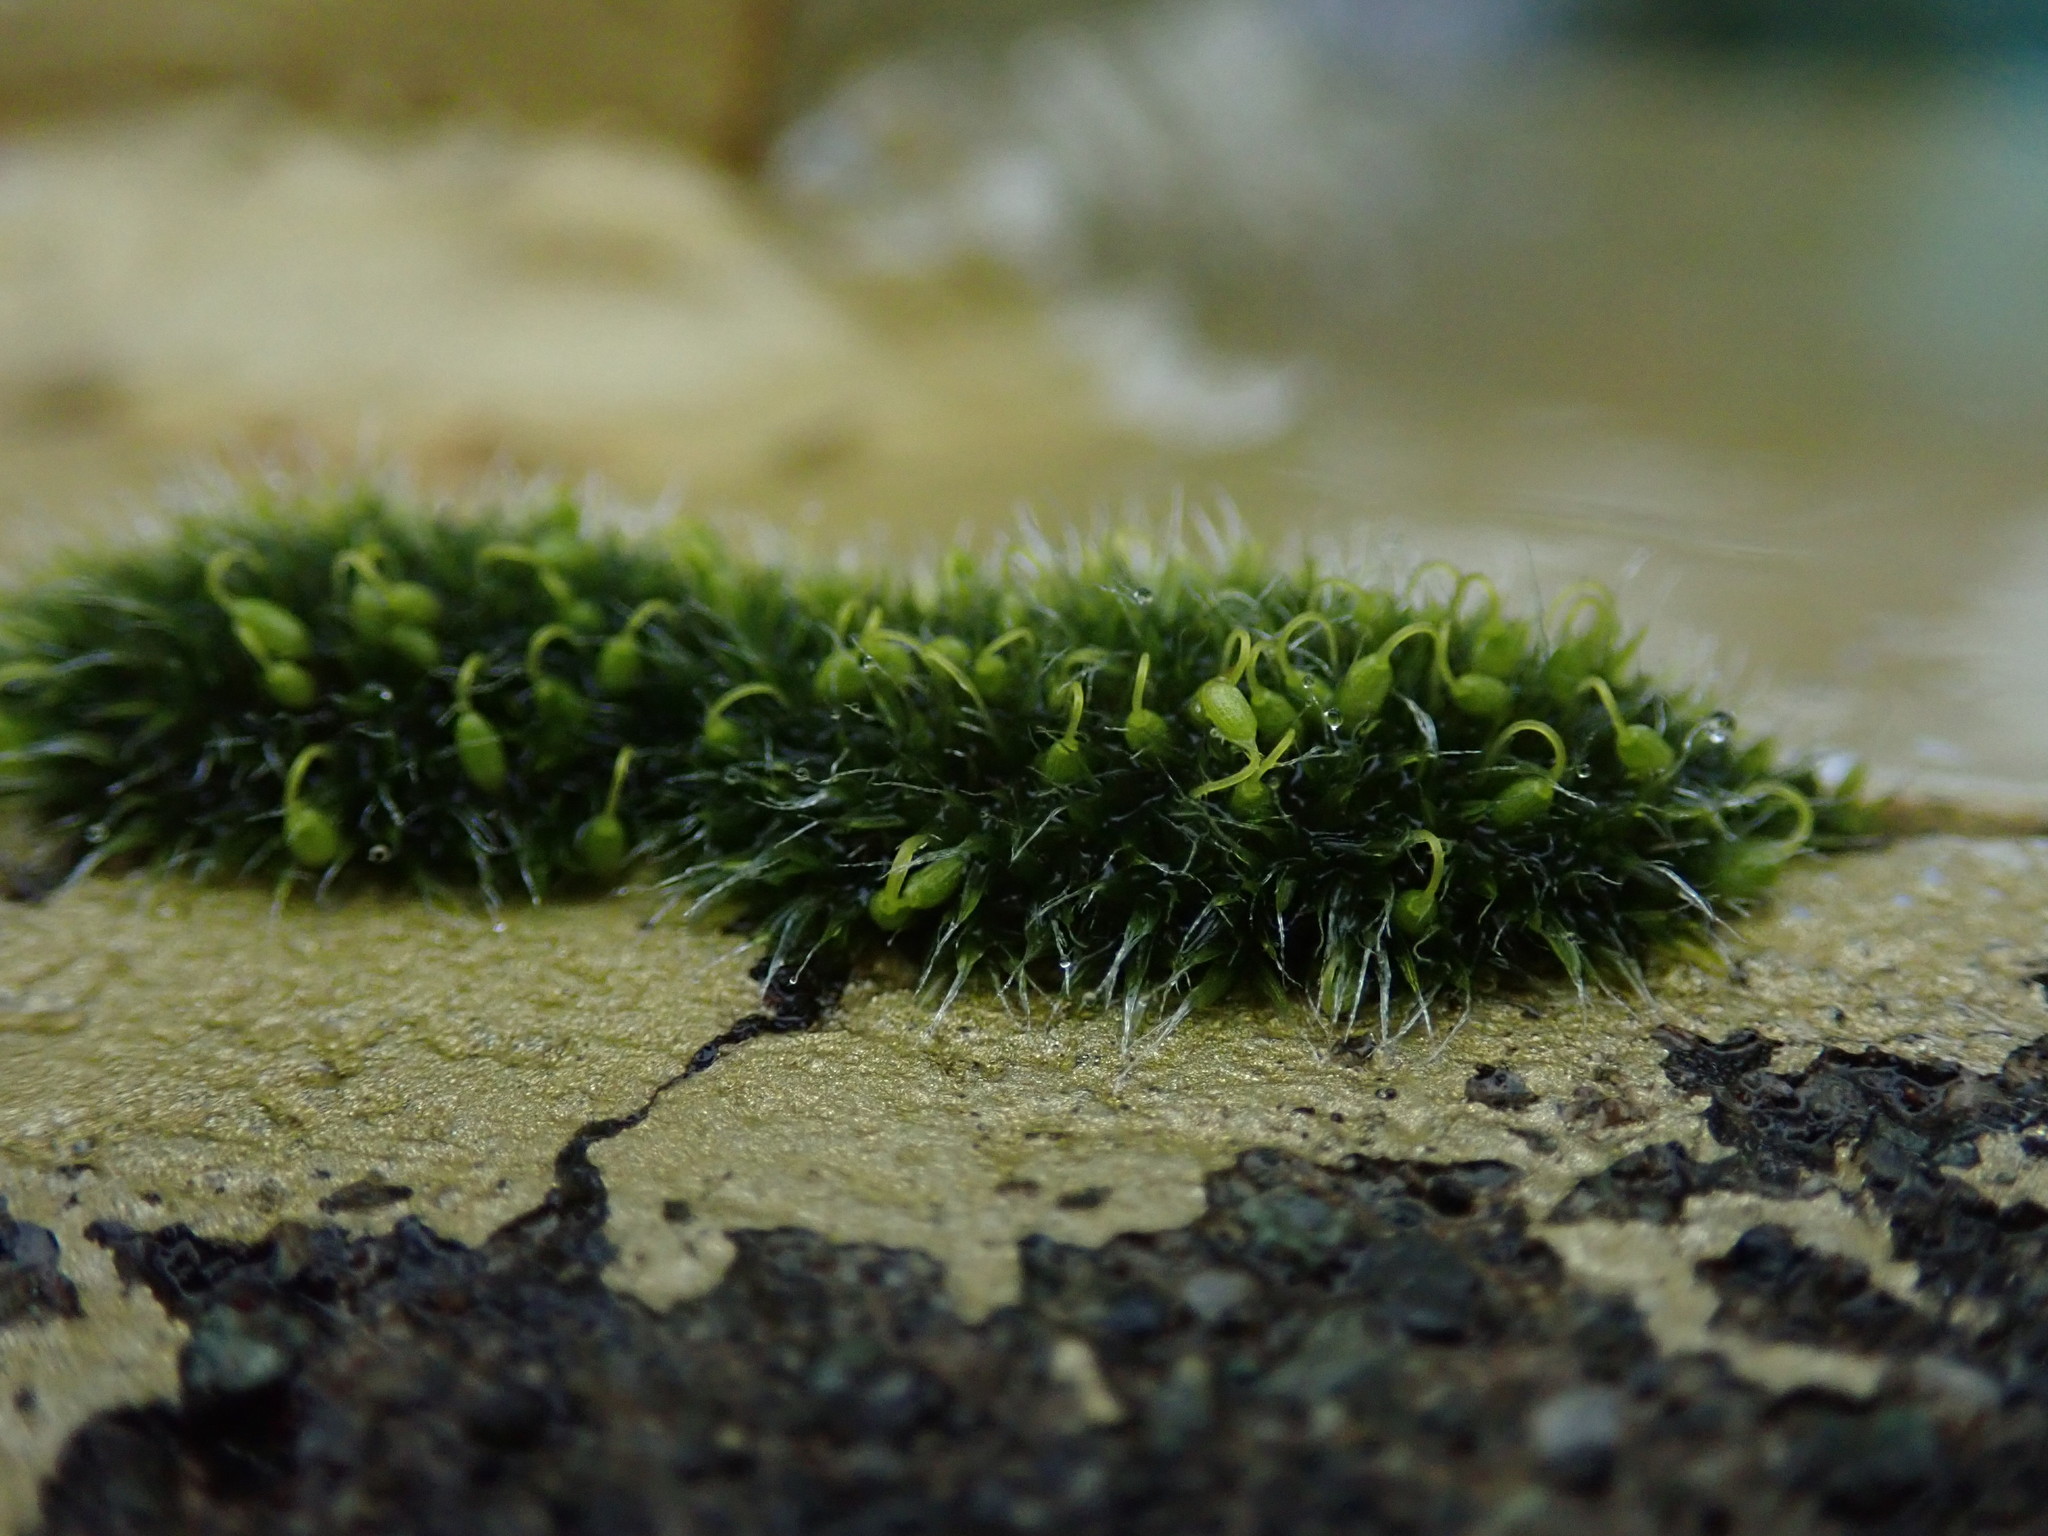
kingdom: Plantae
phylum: Bryophyta
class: Bryopsida
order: Grimmiales
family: Grimmiaceae
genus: Grimmia
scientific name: Grimmia pulvinata
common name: Grey-cushioned grimmia
